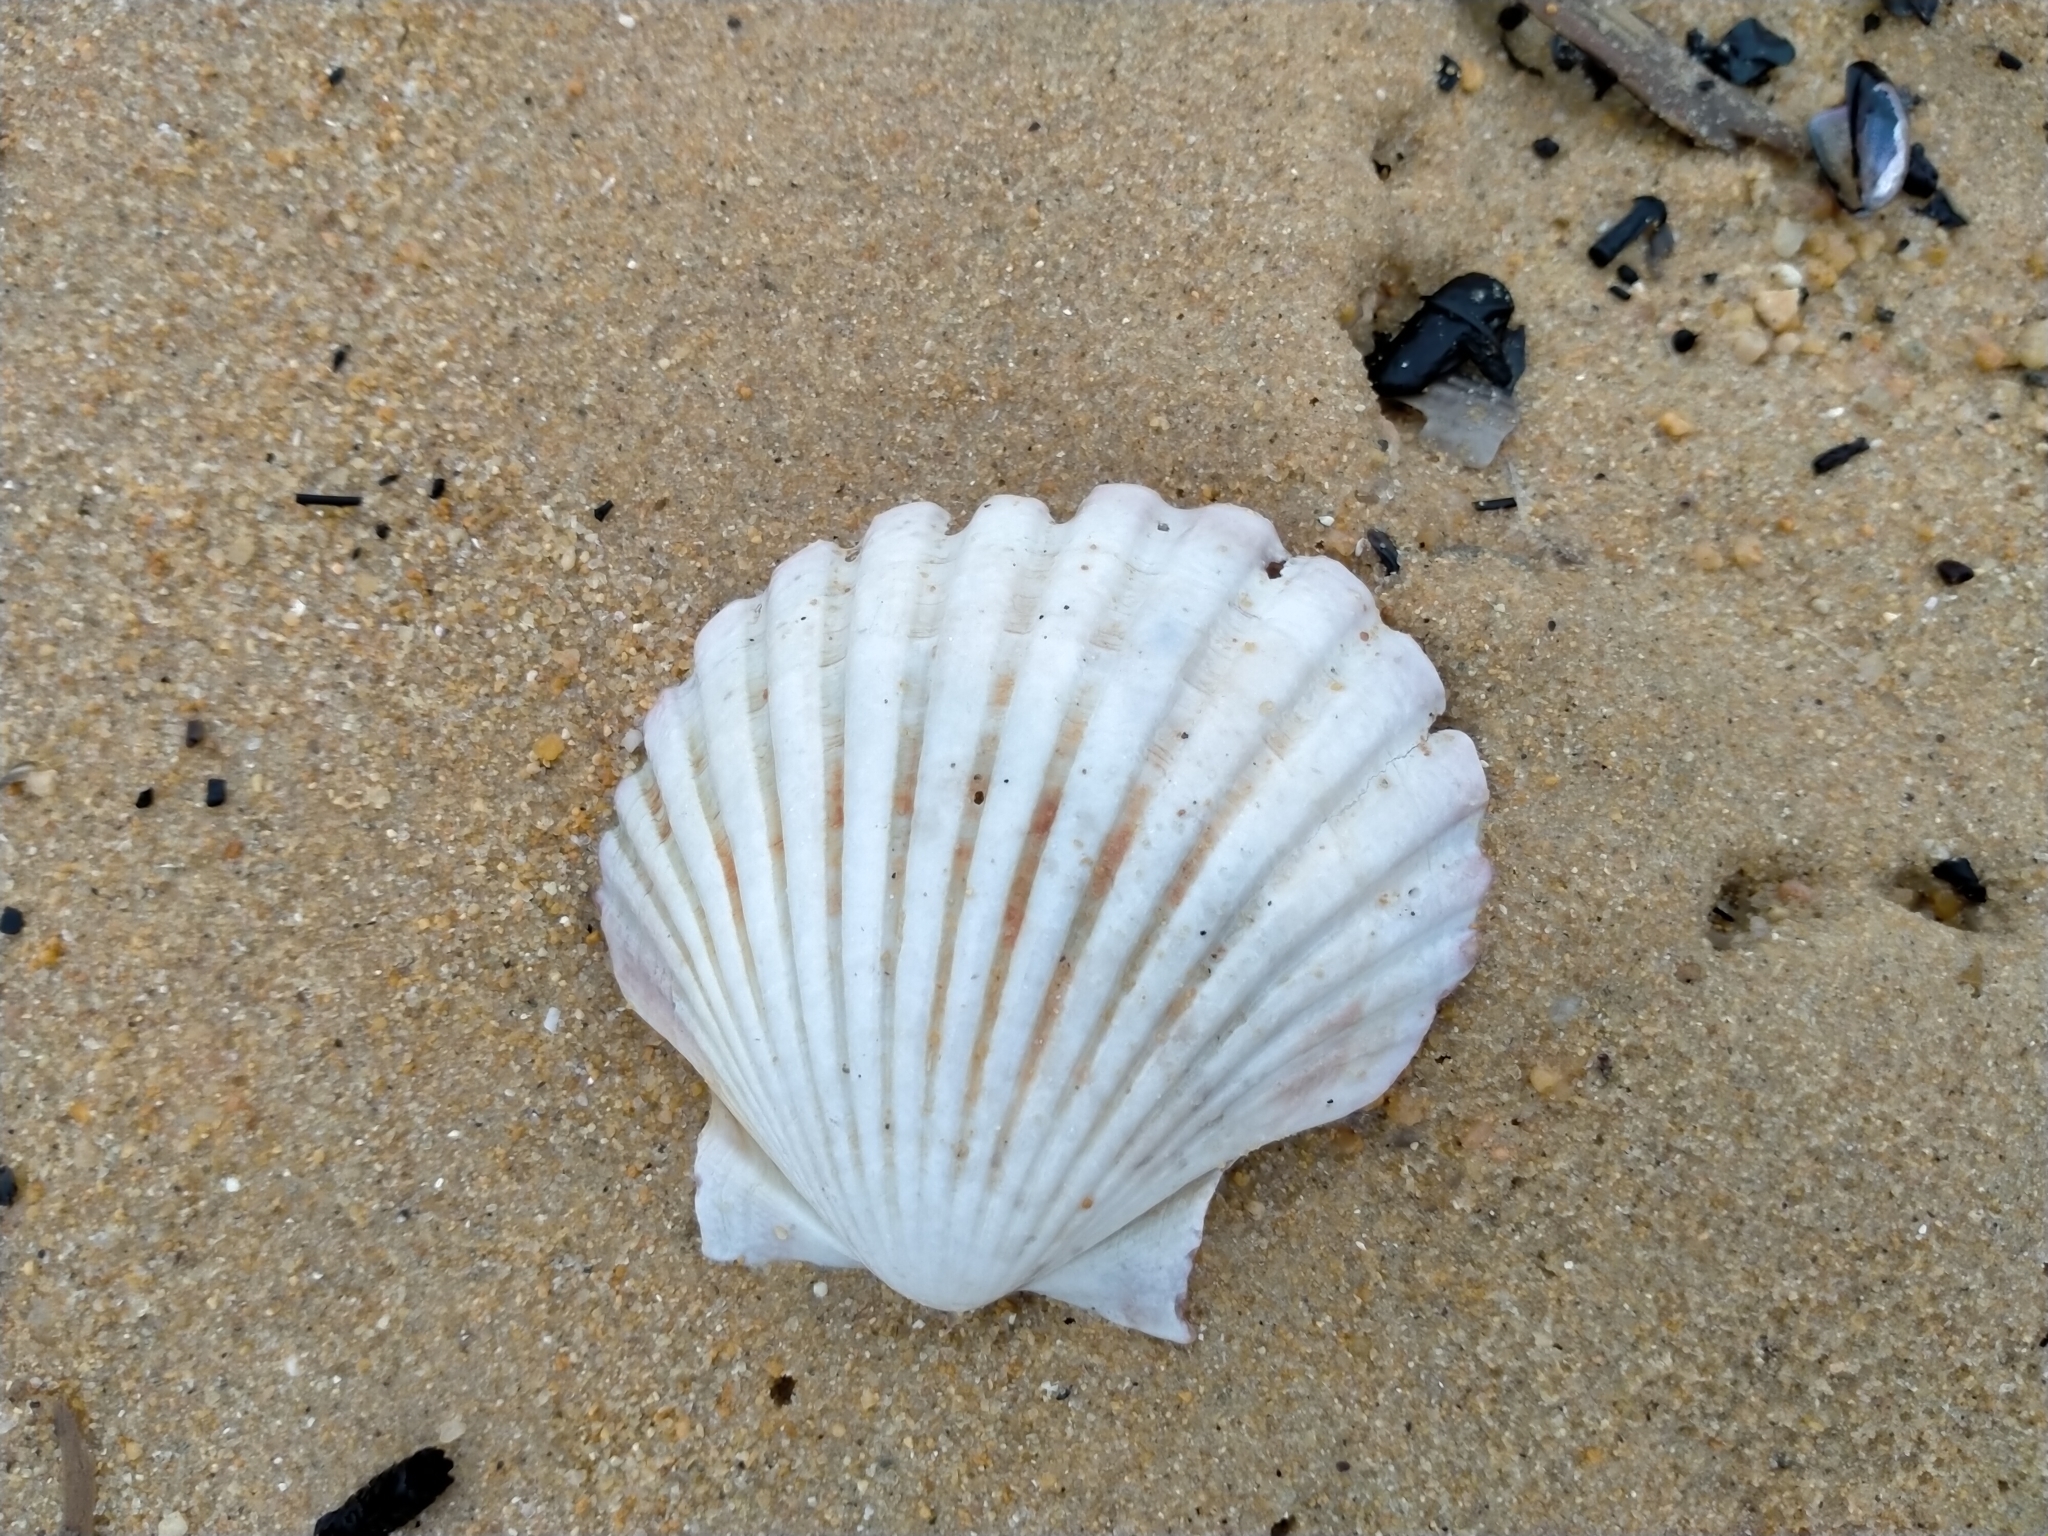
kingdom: Animalia
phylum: Mollusca
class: Bivalvia
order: Pectinida
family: Pectinidae
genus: Pecten
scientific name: Pecten novaezelandiae
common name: New zealand scallop
